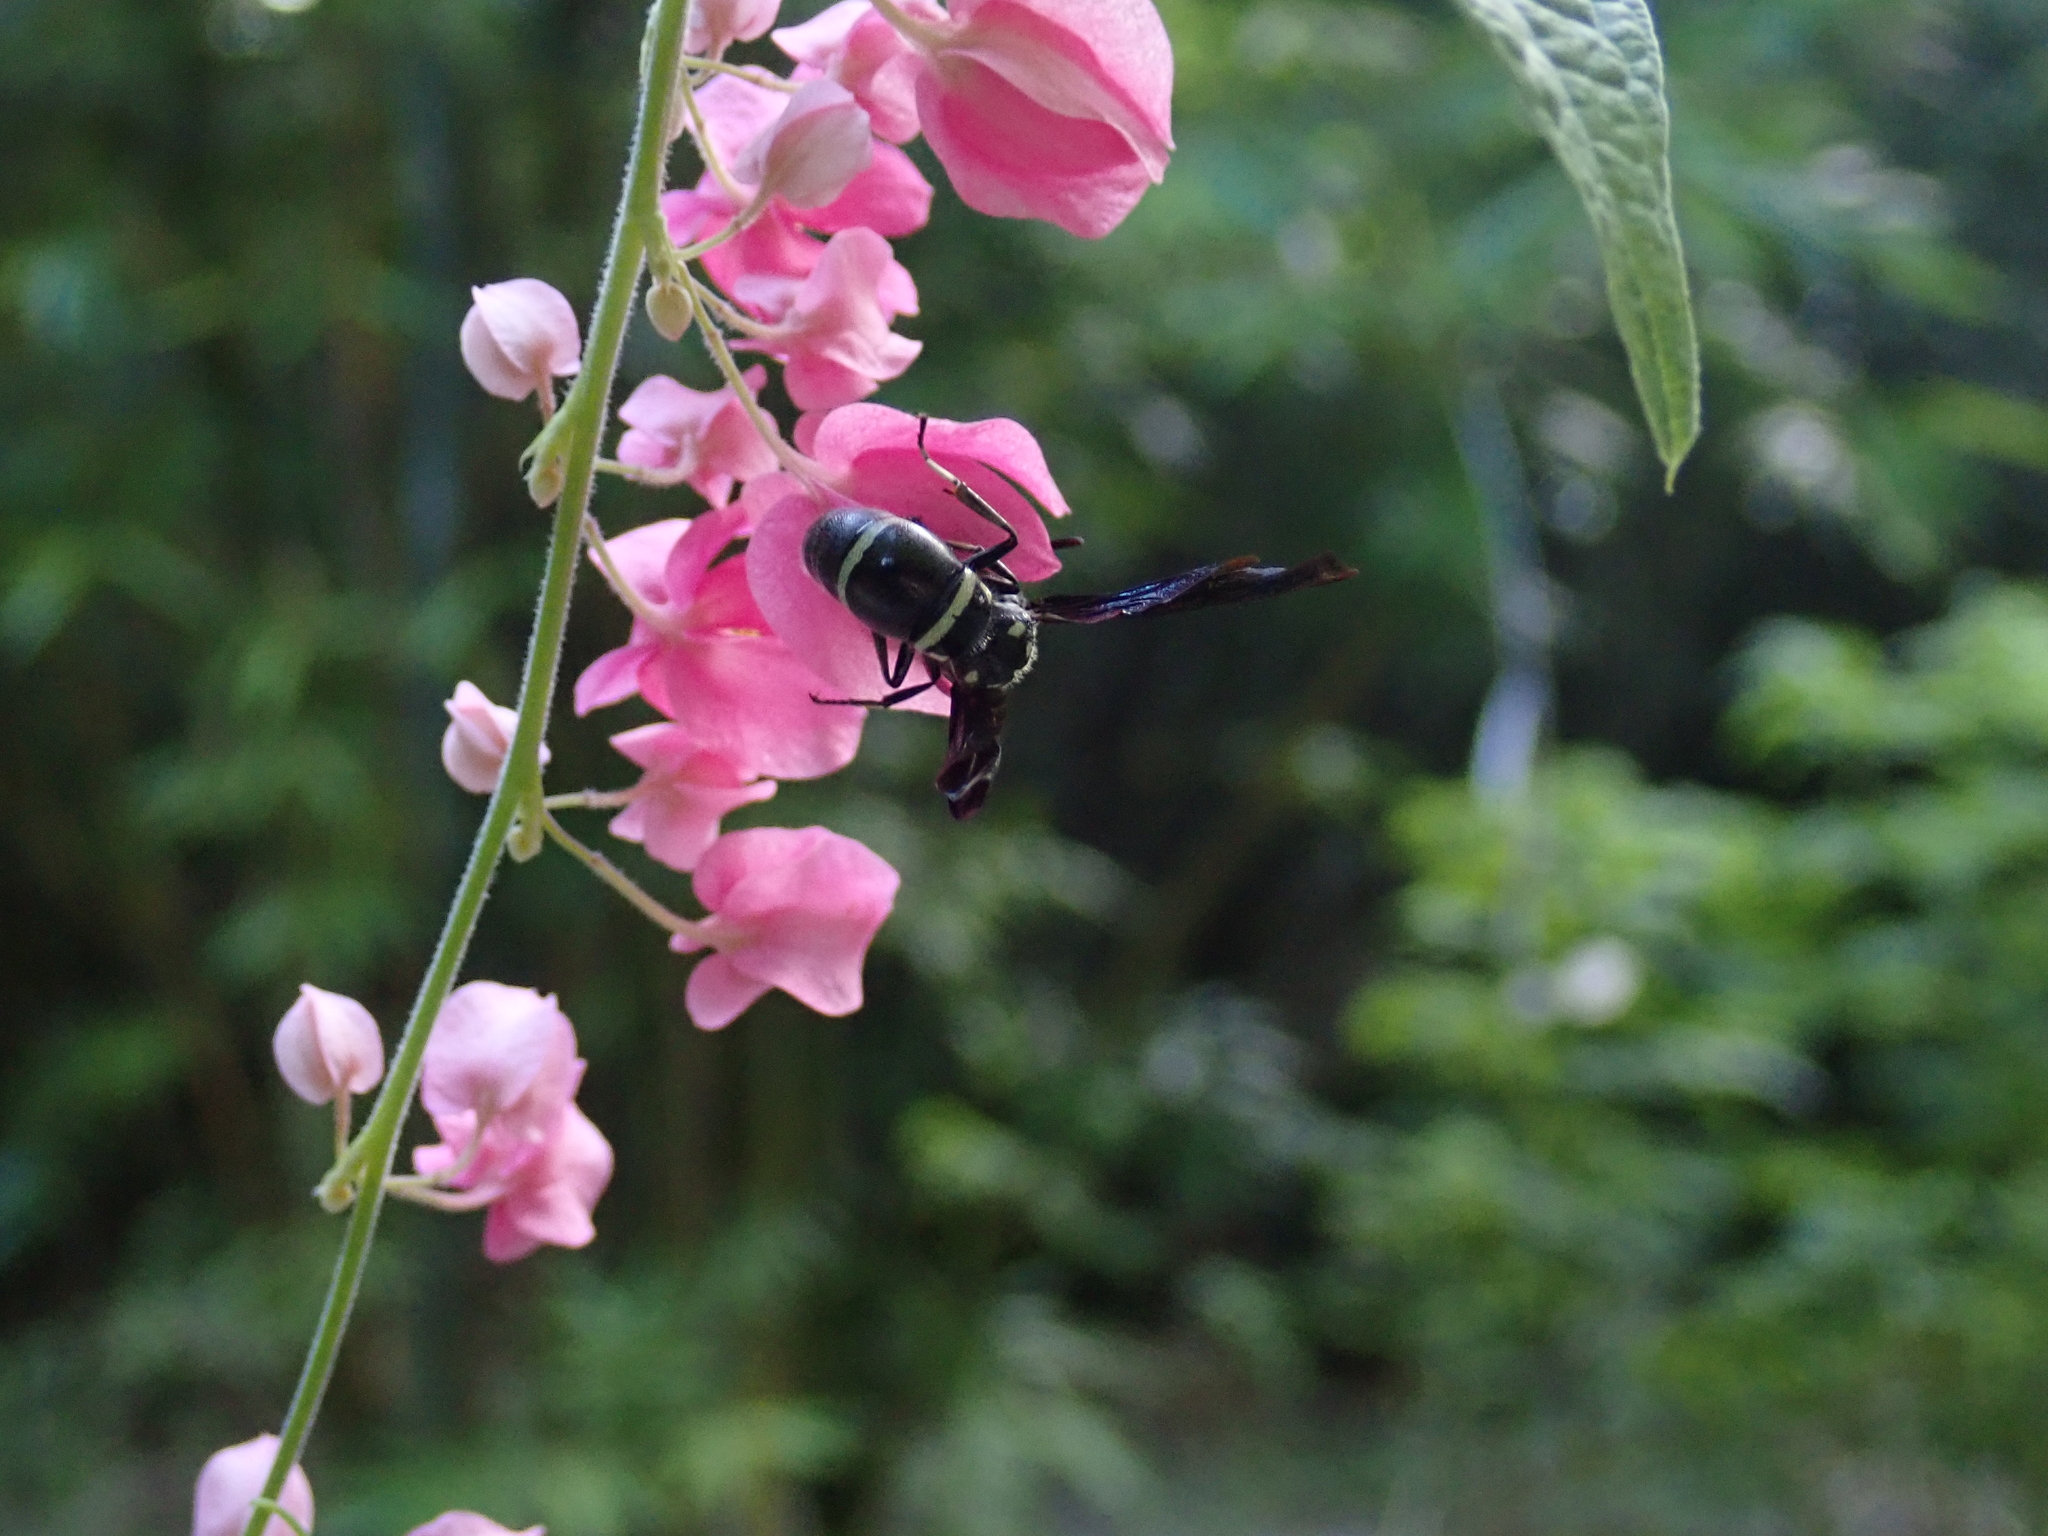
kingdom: Animalia
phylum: Arthropoda
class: Insecta
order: Hymenoptera
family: Eumenidae
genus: Pseudodynerus
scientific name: Pseudodynerus quadrisectus
